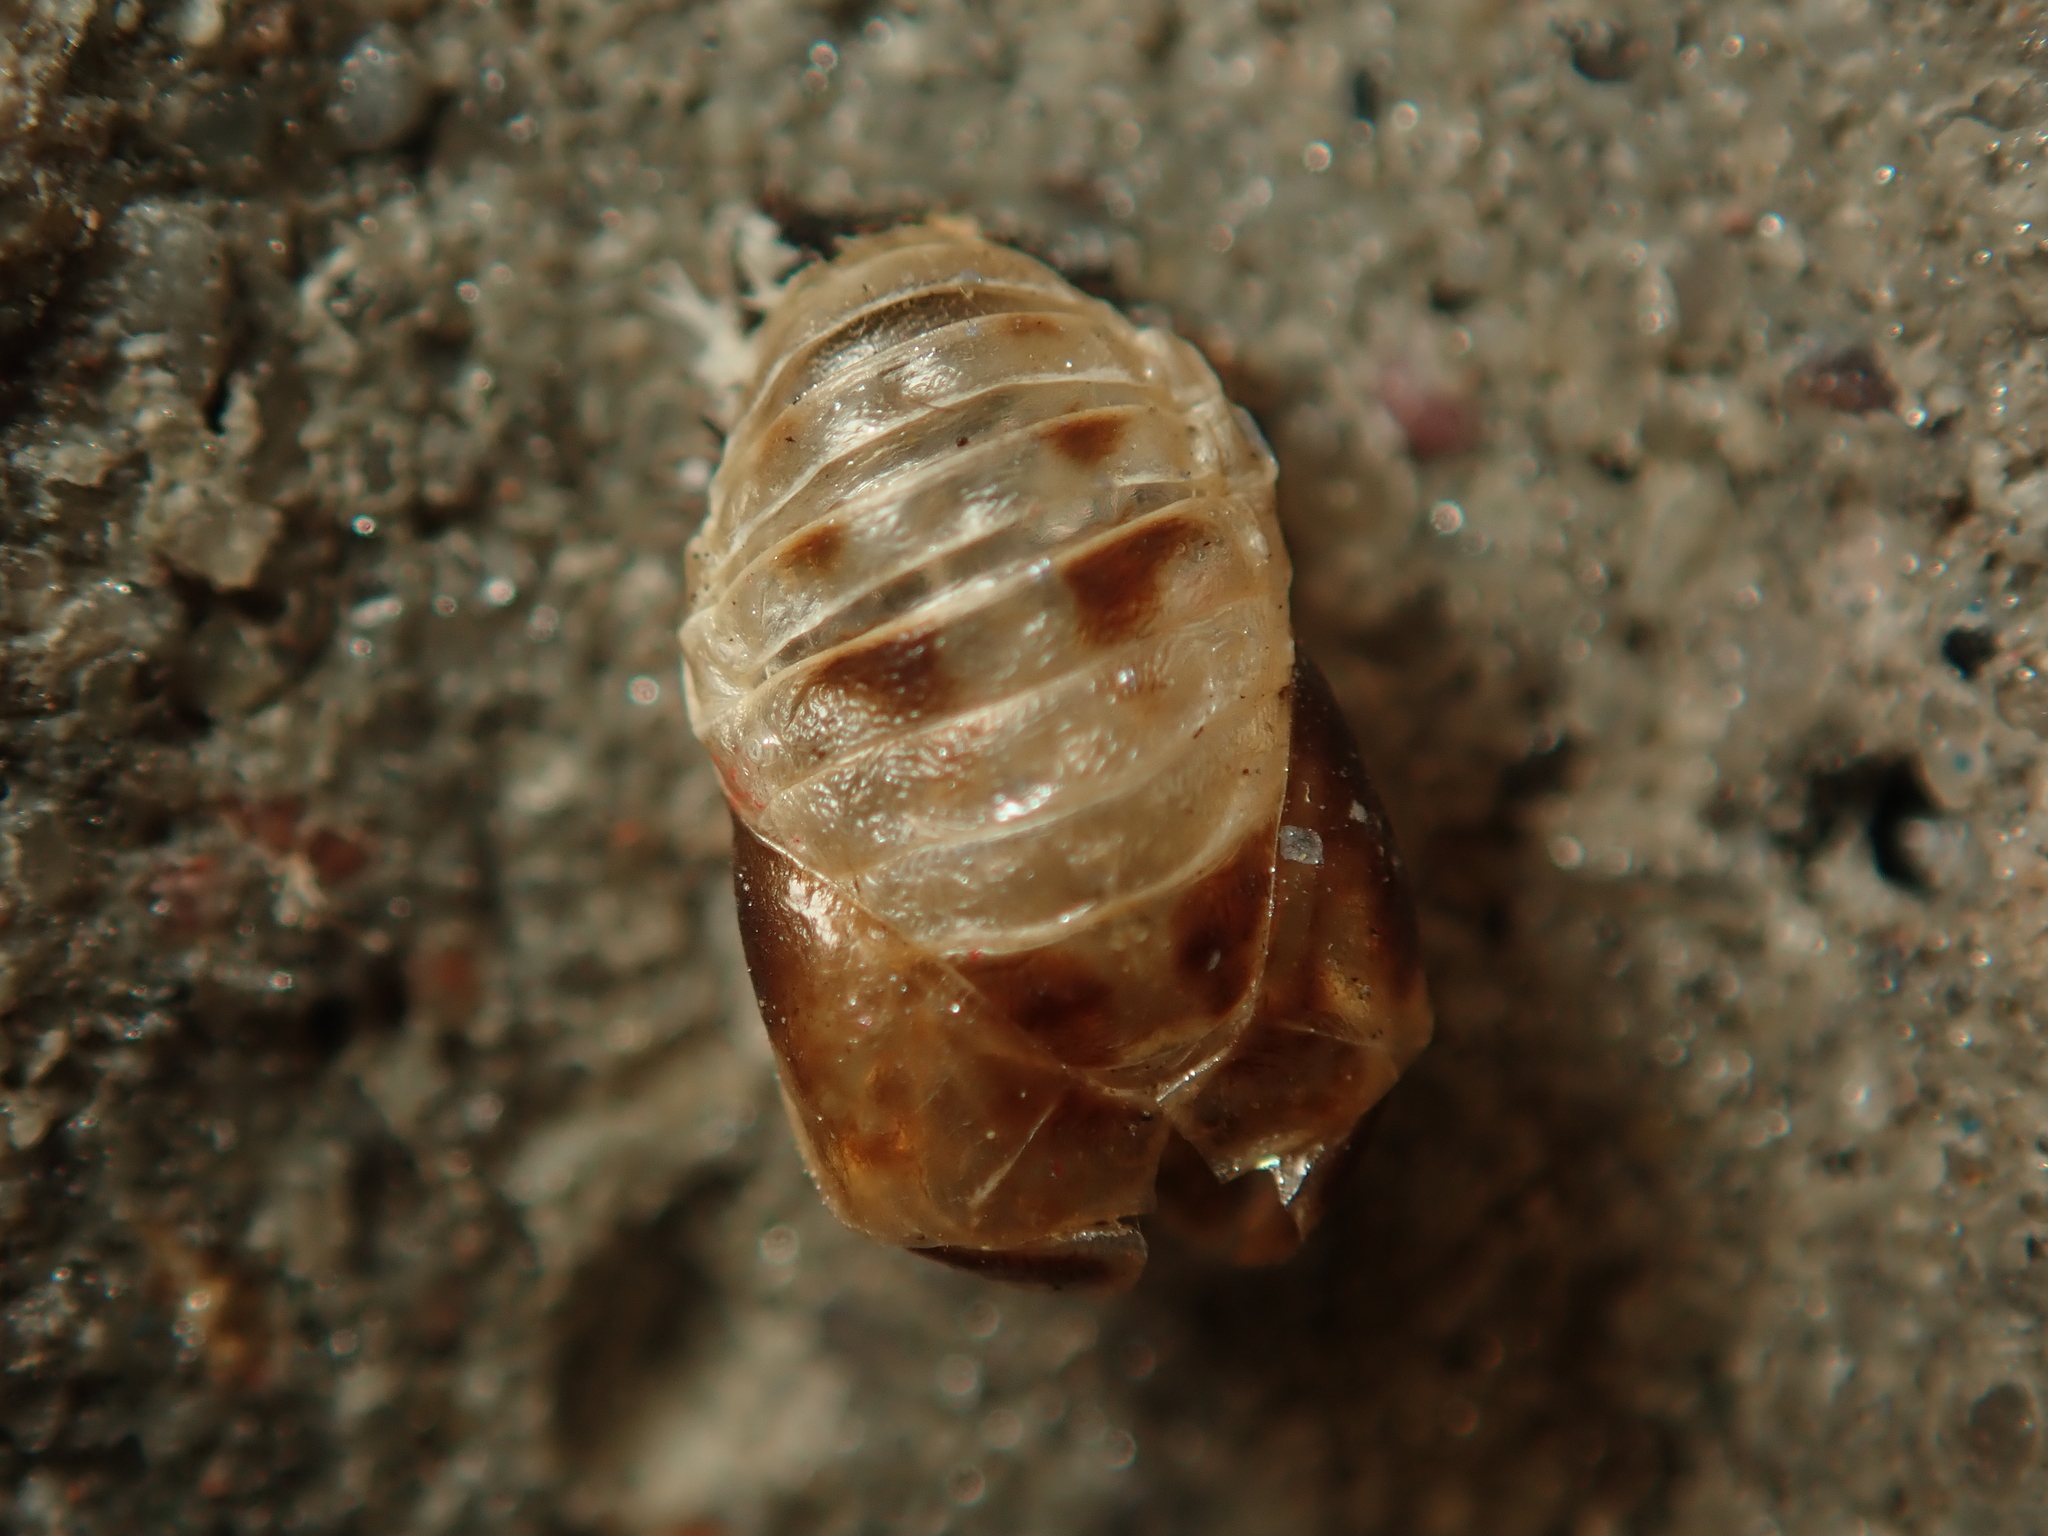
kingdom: Animalia
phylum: Arthropoda
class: Insecta
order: Coleoptera
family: Coccinellidae
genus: Harmonia
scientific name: Harmonia axyridis
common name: Harlequin ladybird
